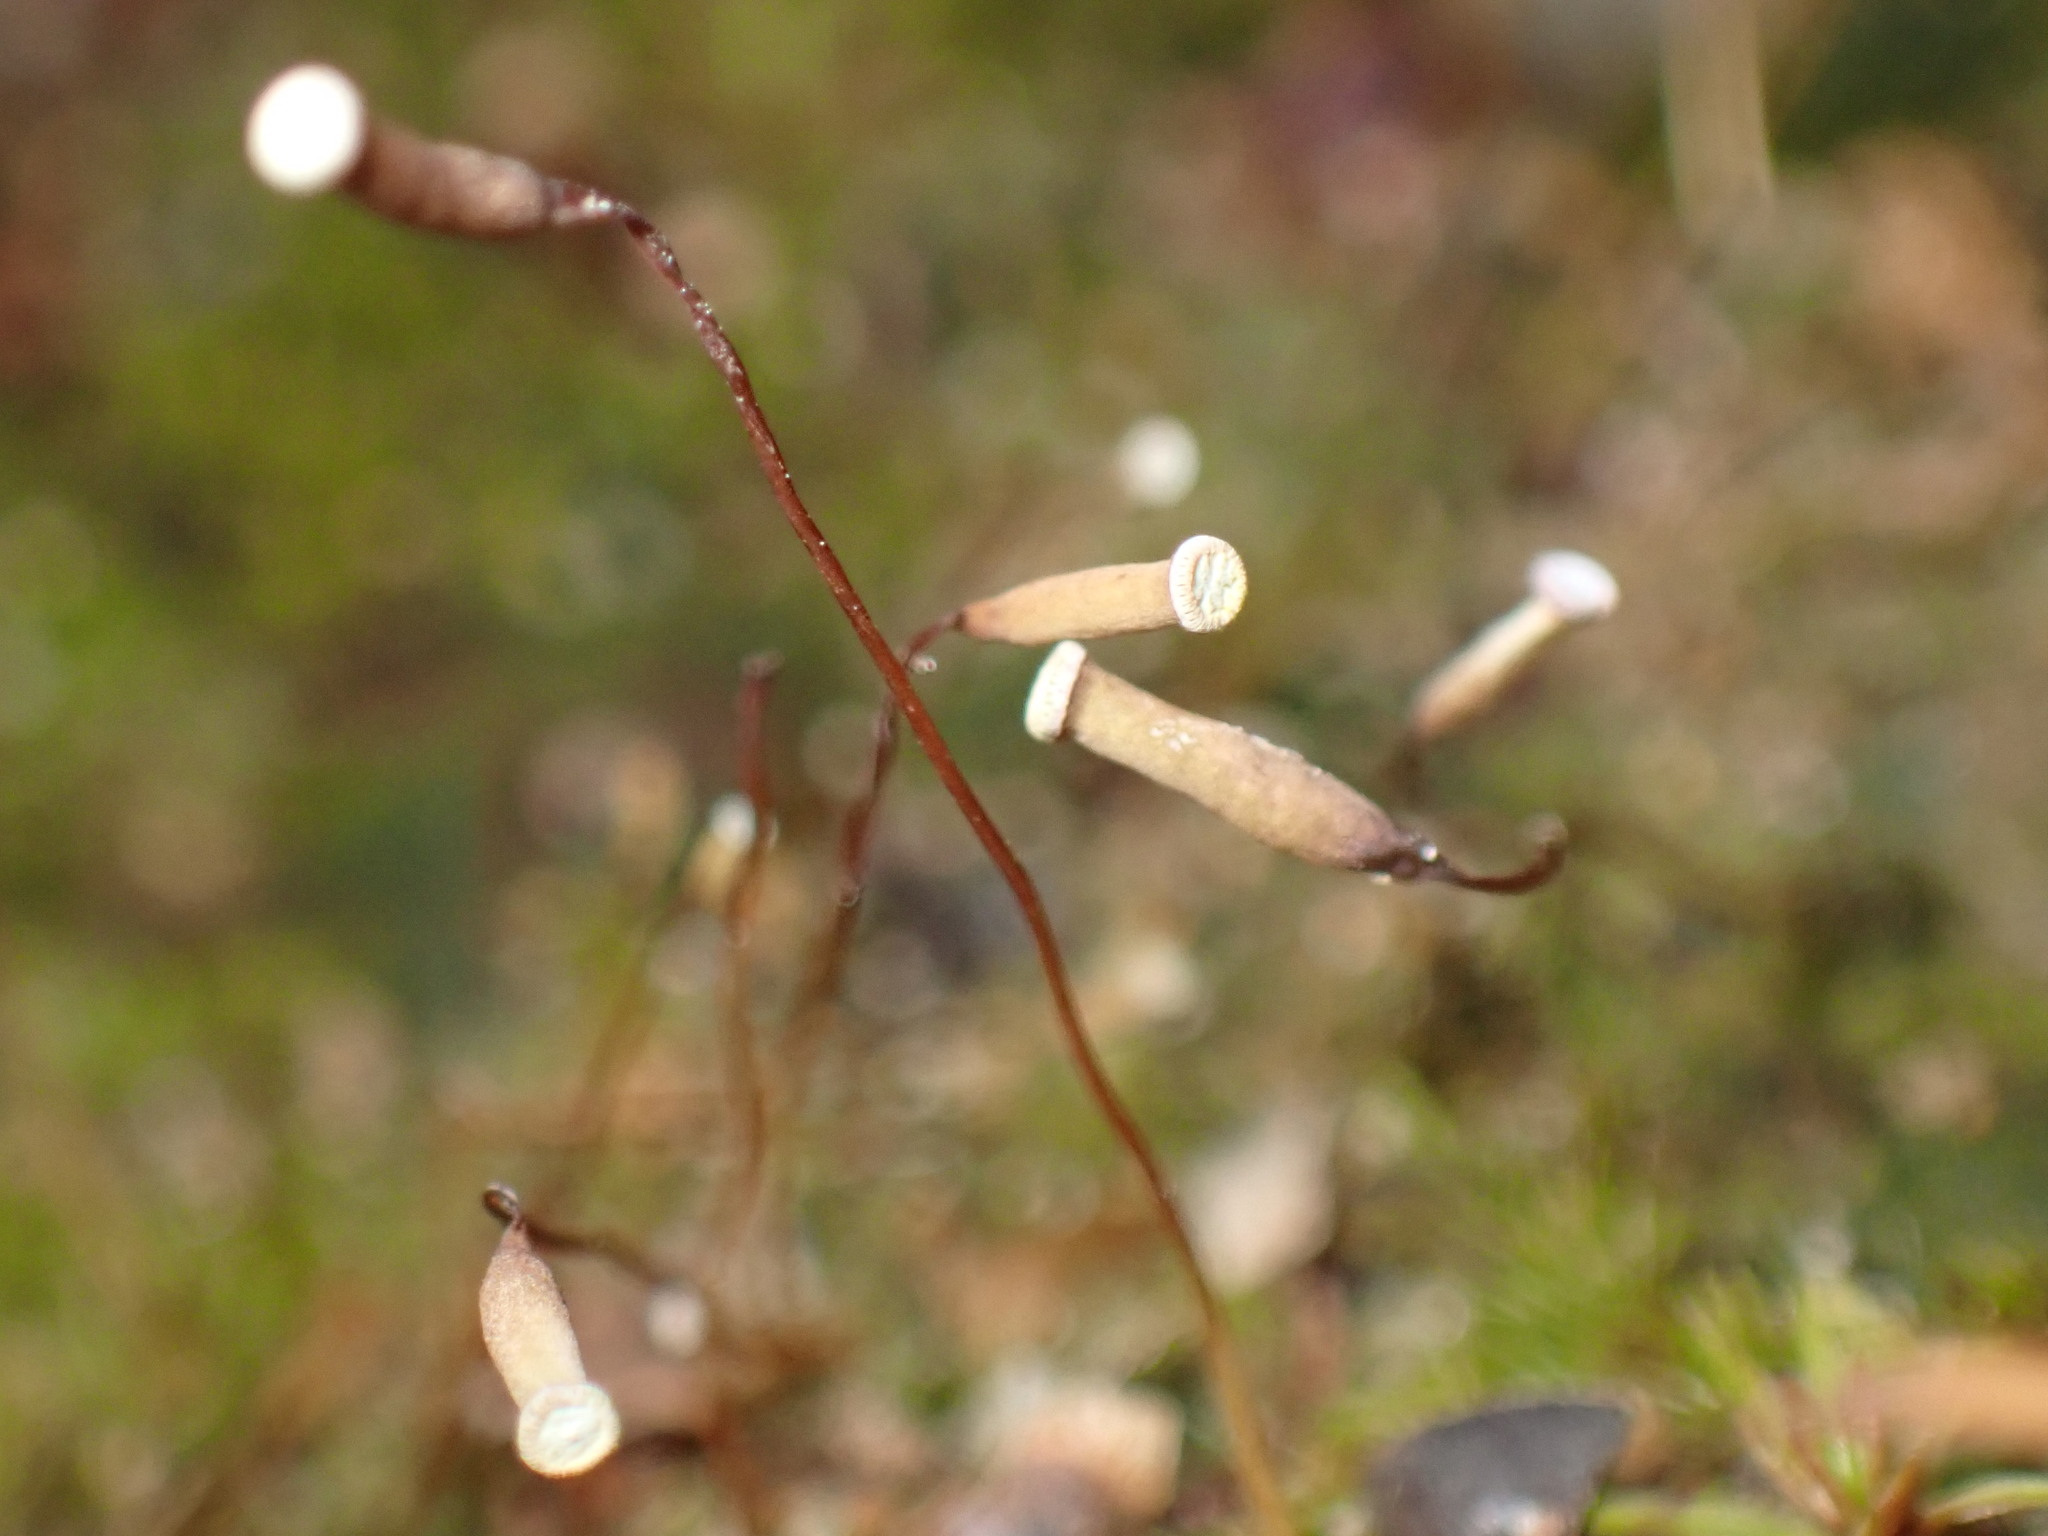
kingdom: Plantae
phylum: Bryophyta
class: Polytrichopsida
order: Polytrichales
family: Polytrichaceae
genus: Pogonatum
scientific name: Pogonatum pensilvanicum
